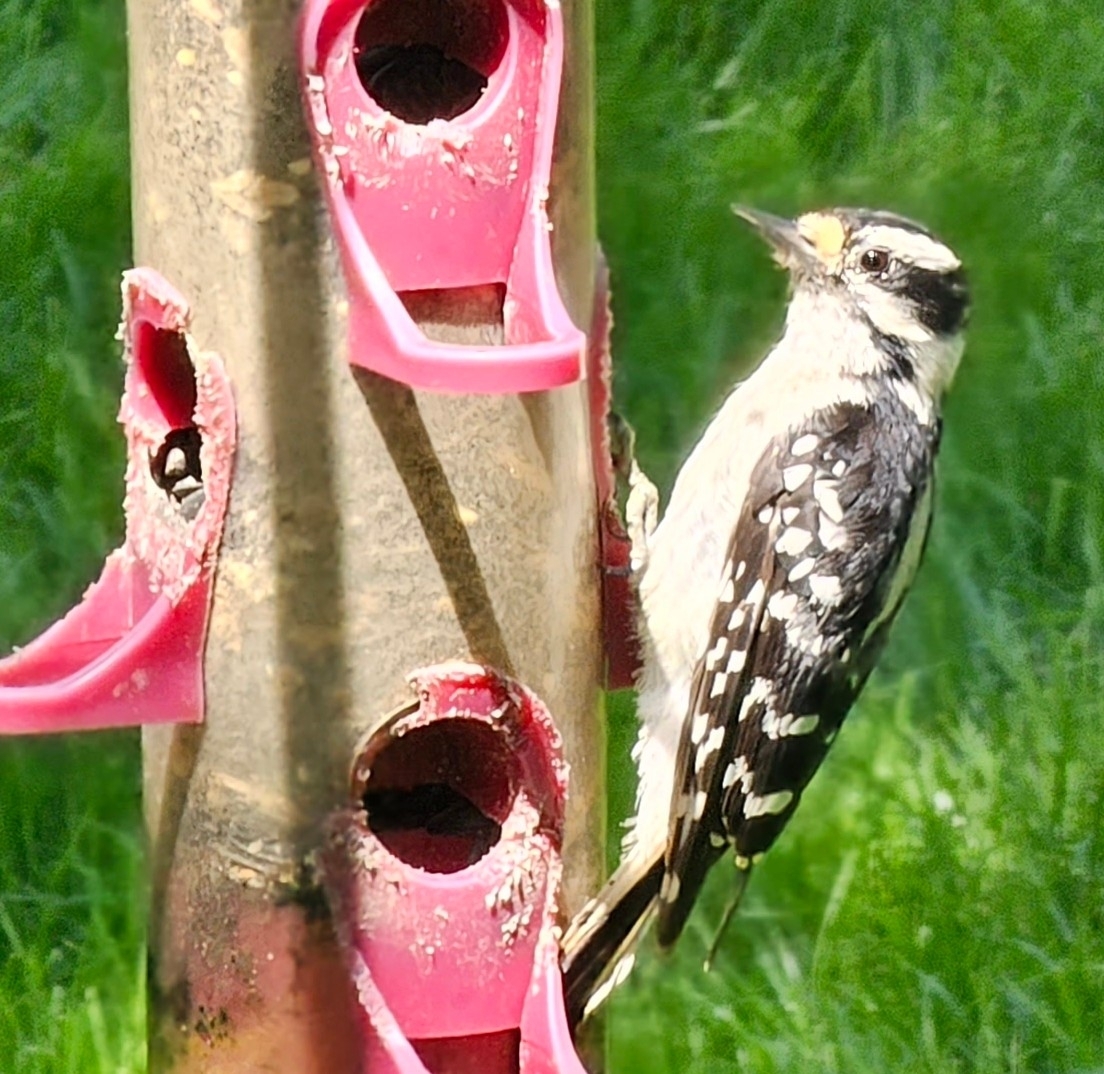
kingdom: Animalia
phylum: Chordata
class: Aves
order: Piciformes
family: Picidae
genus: Dryobates
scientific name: Dryobates pubescens
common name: Downy woodpecker
